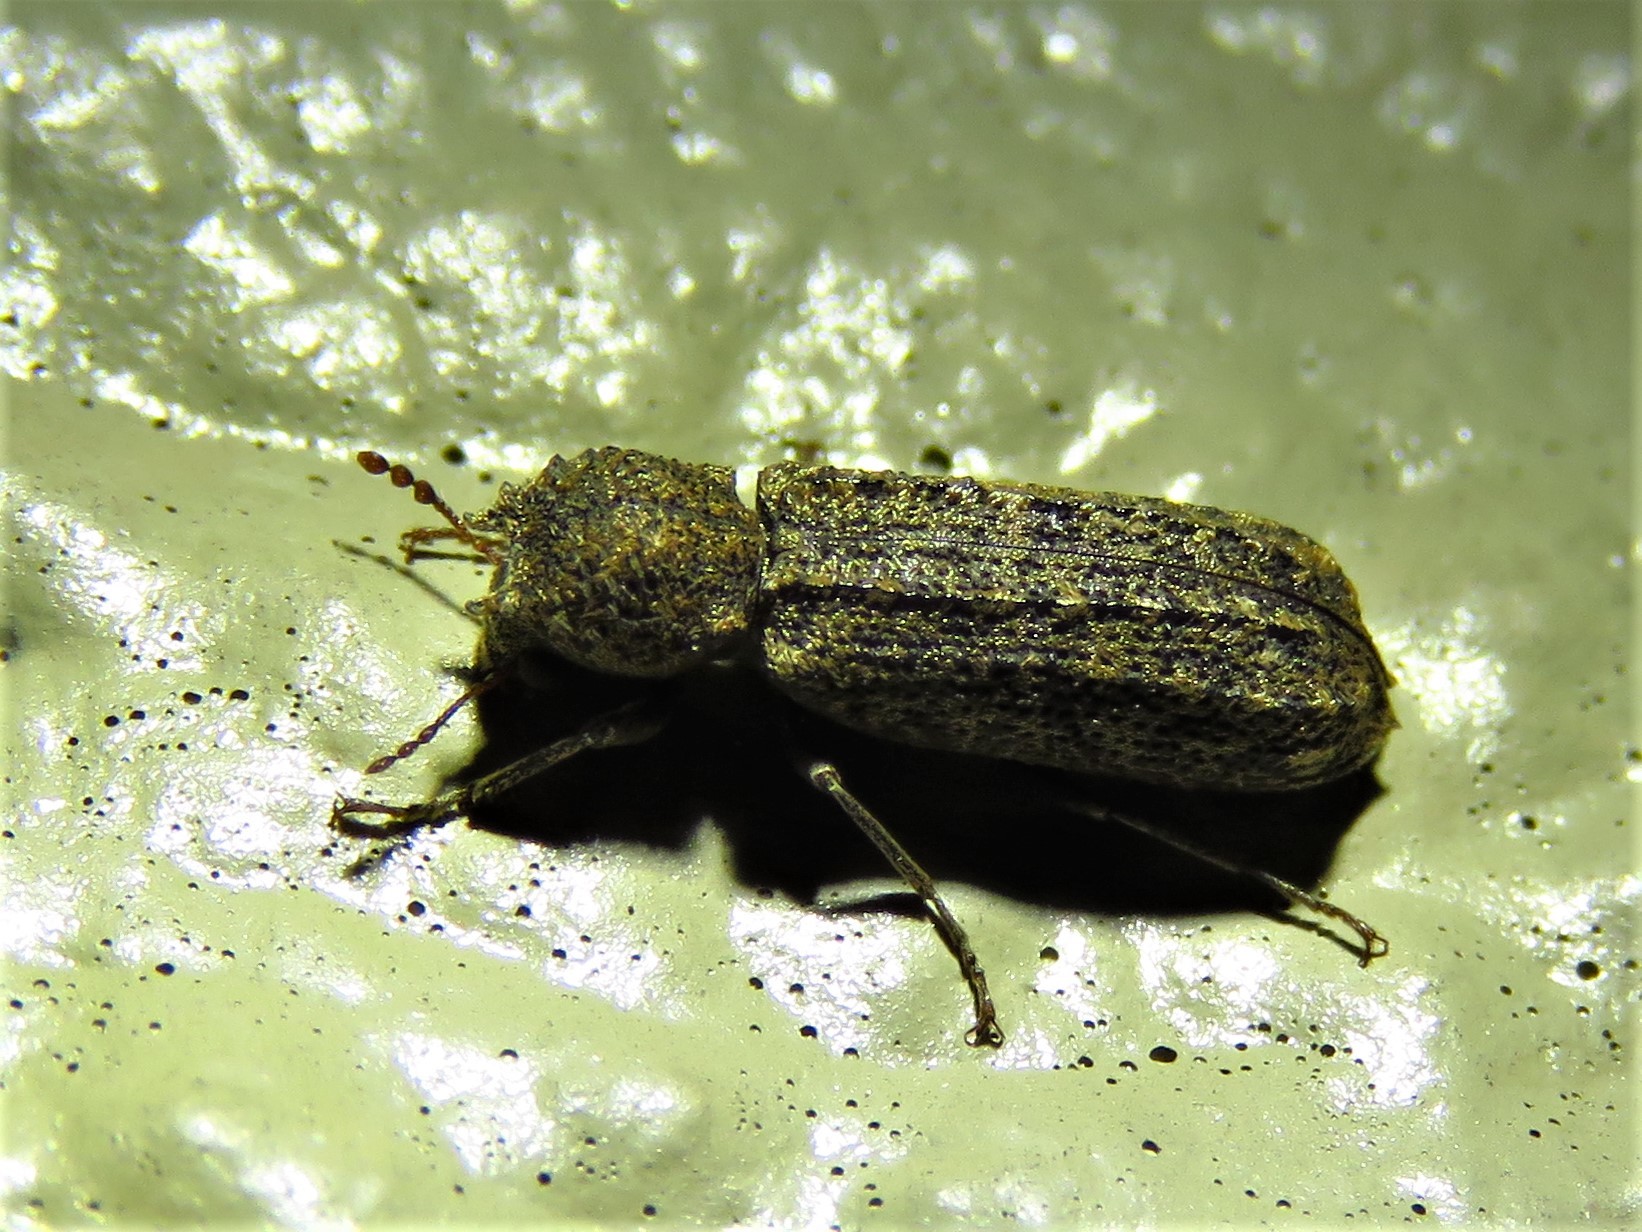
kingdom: Animalia
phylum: Arthropoda
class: Insecta
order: Coleoptera
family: Bostrichidae
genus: Lichenophanes
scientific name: Lichenophanes bicornis
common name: Two-horned powder-post beetle
